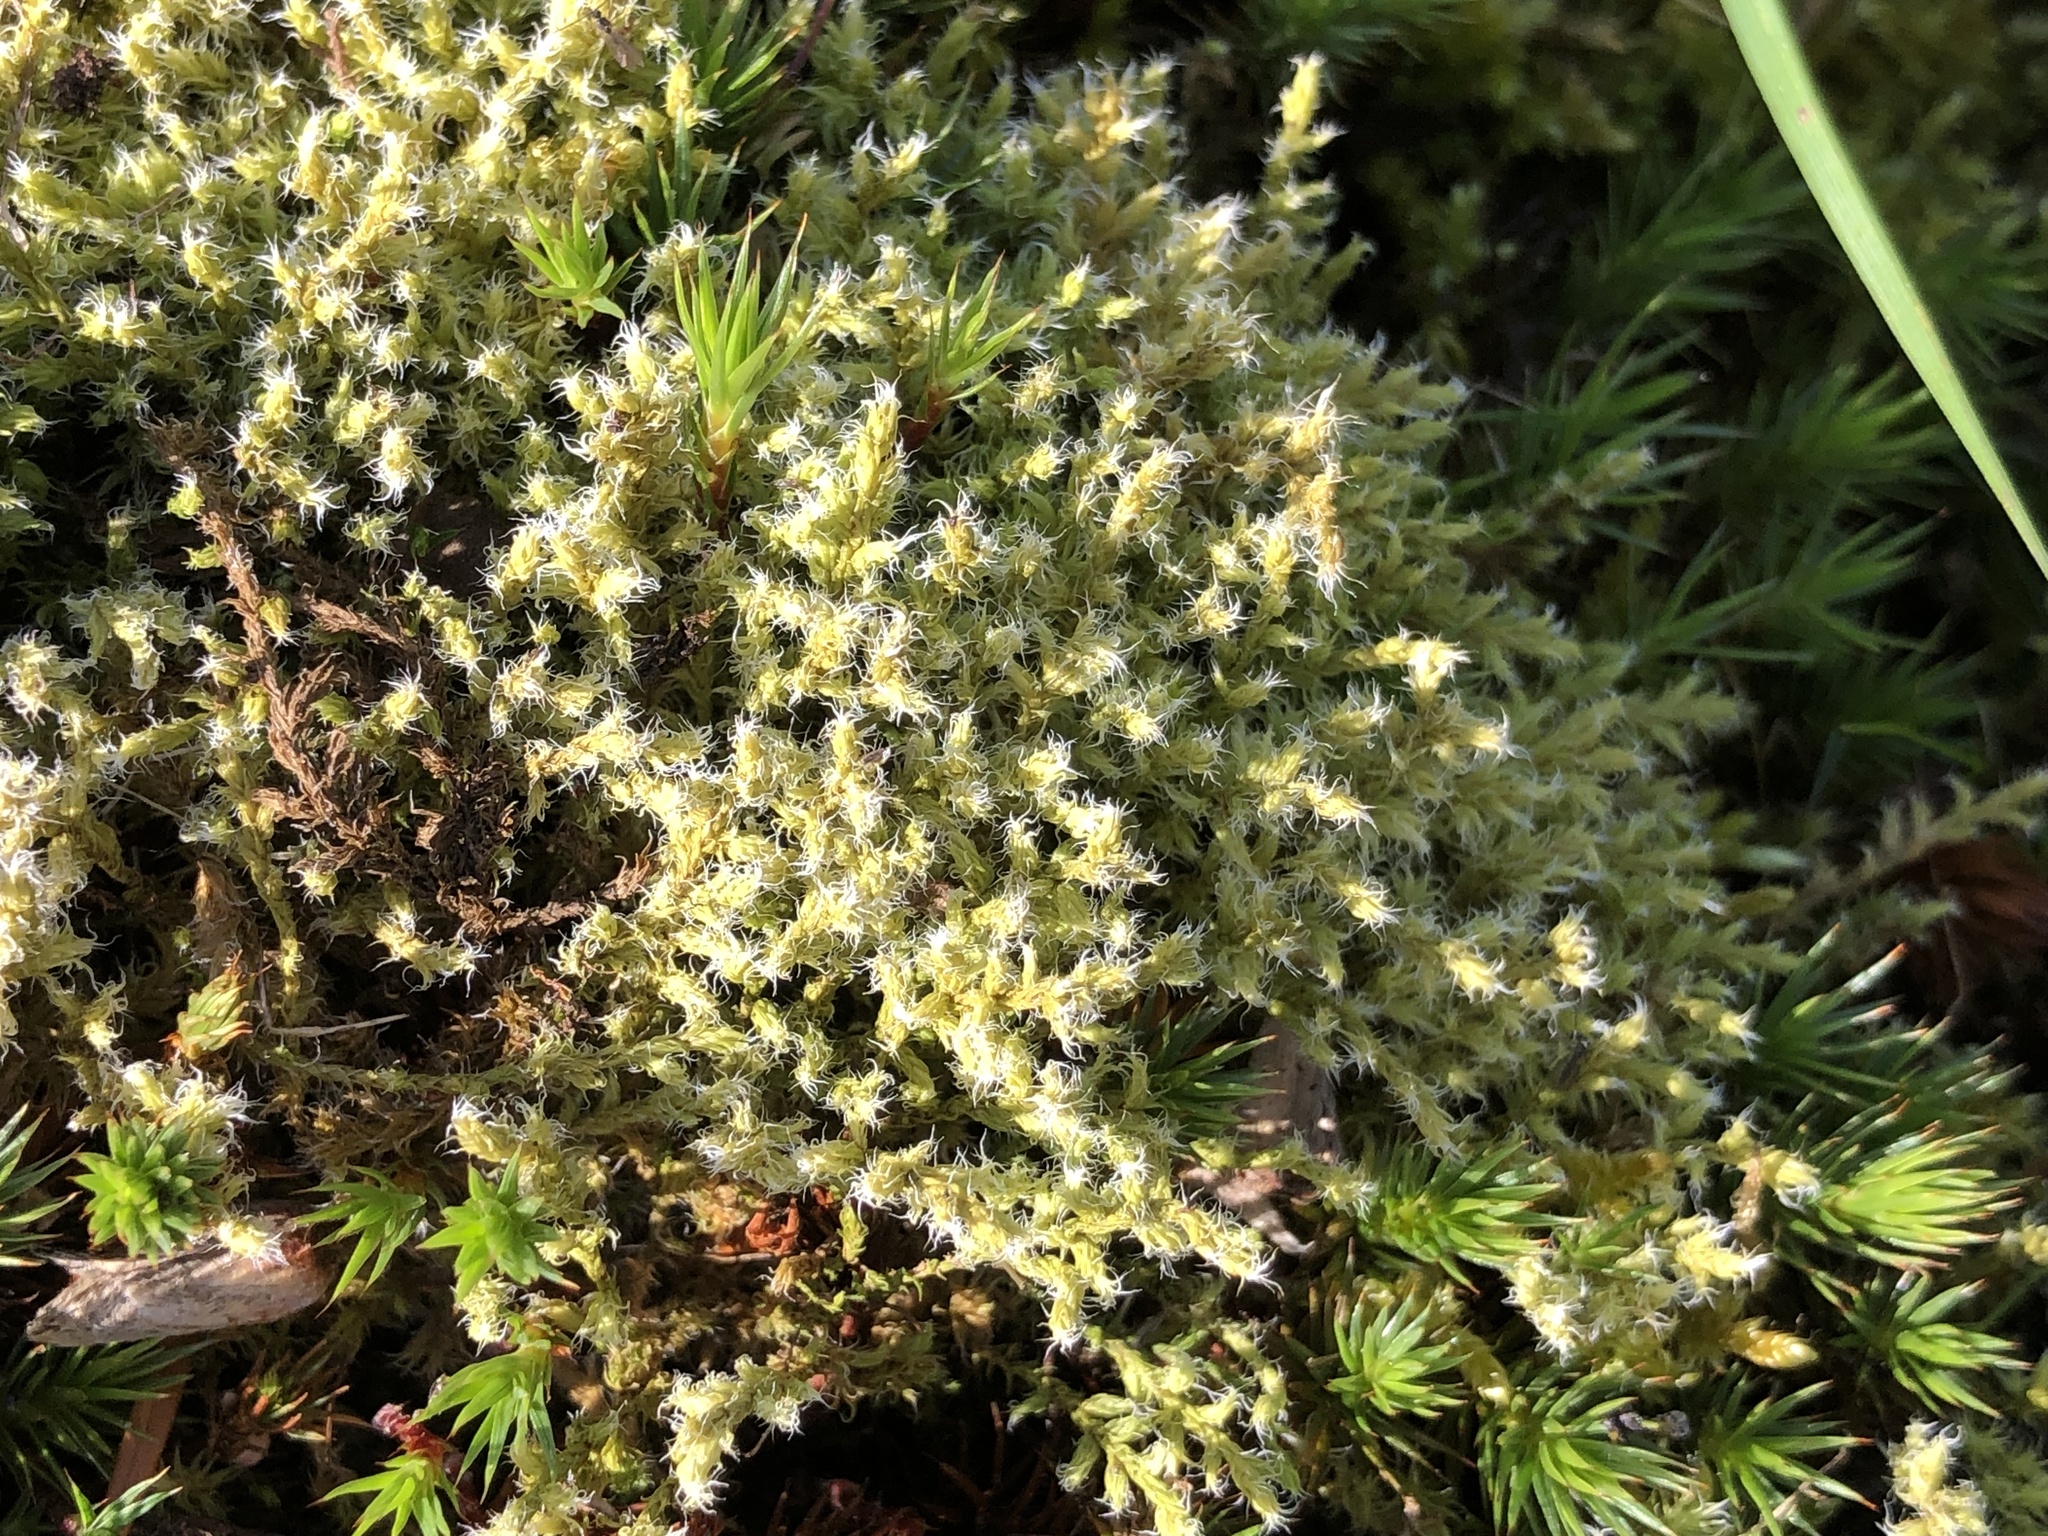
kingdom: Plantae
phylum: Bryophyta
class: Bryopsida
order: Grimmiales
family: Grimmiaceae
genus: Racomitrium
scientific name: Racomitrium lanuginosum
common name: Hoary rock moss
